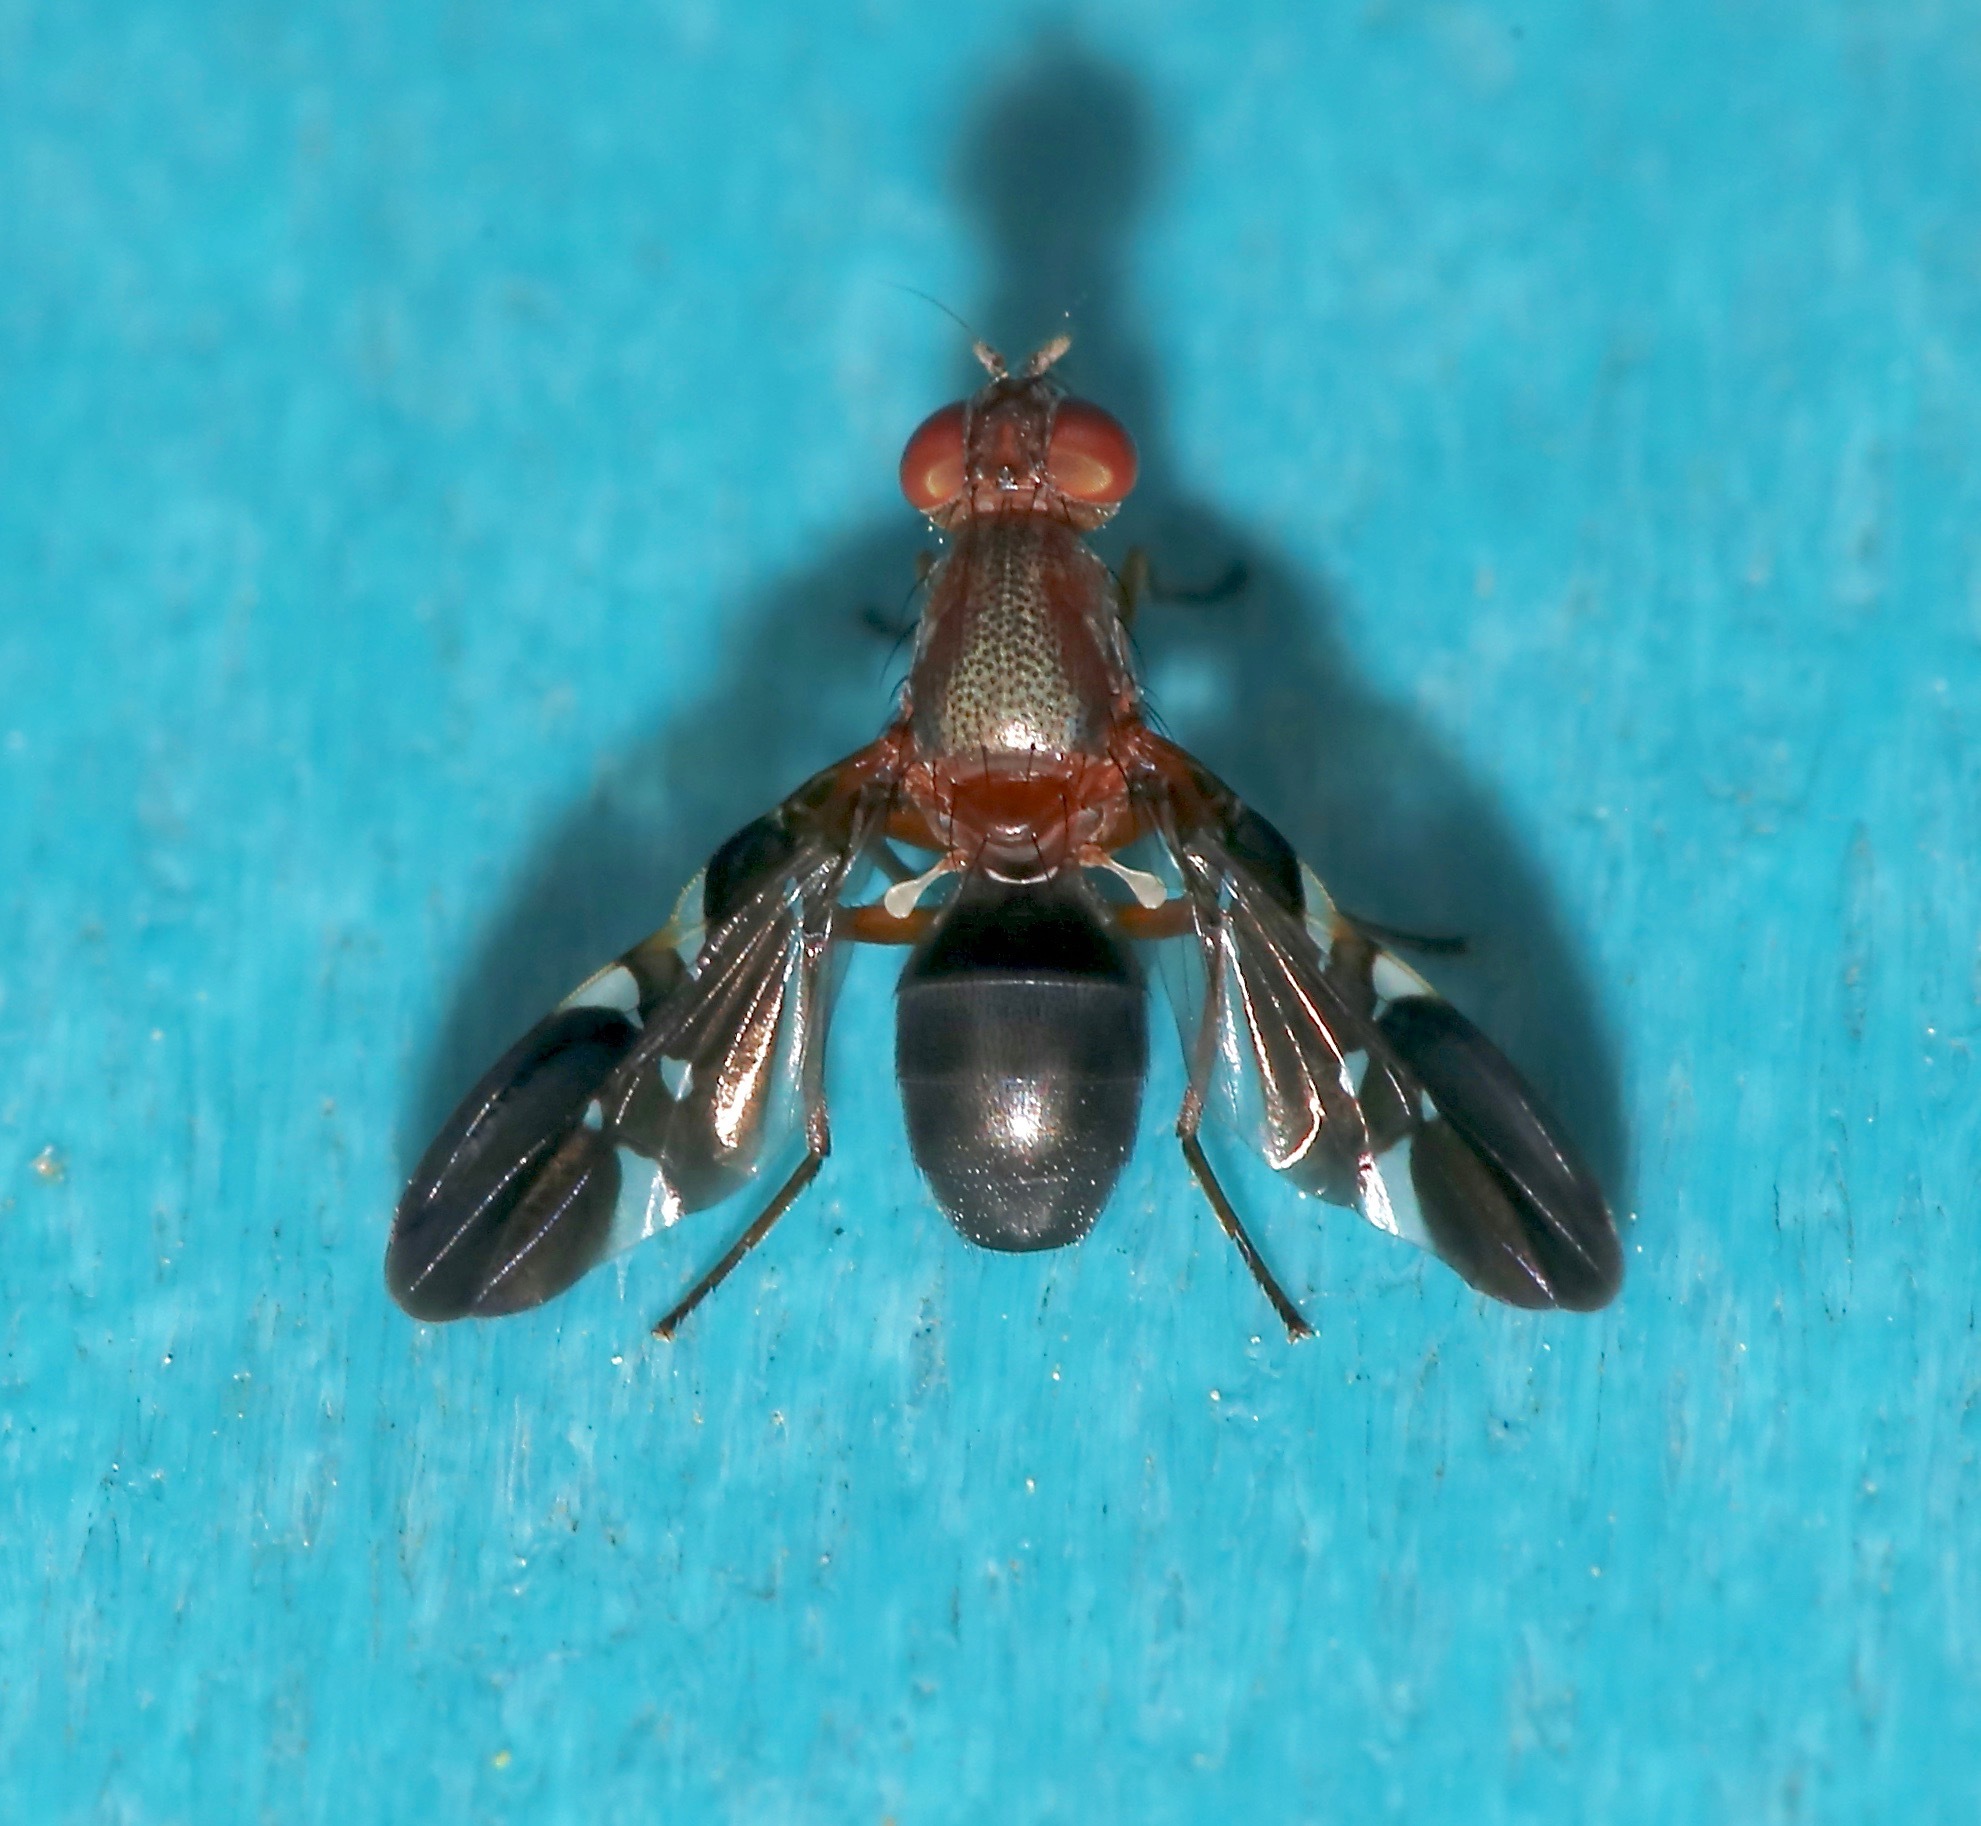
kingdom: Animalia
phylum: Arthropoda
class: Insecta
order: Diptera
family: Ulidiidae
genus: Delphinia
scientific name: Delphinia picta
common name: Common picture-winged fly
